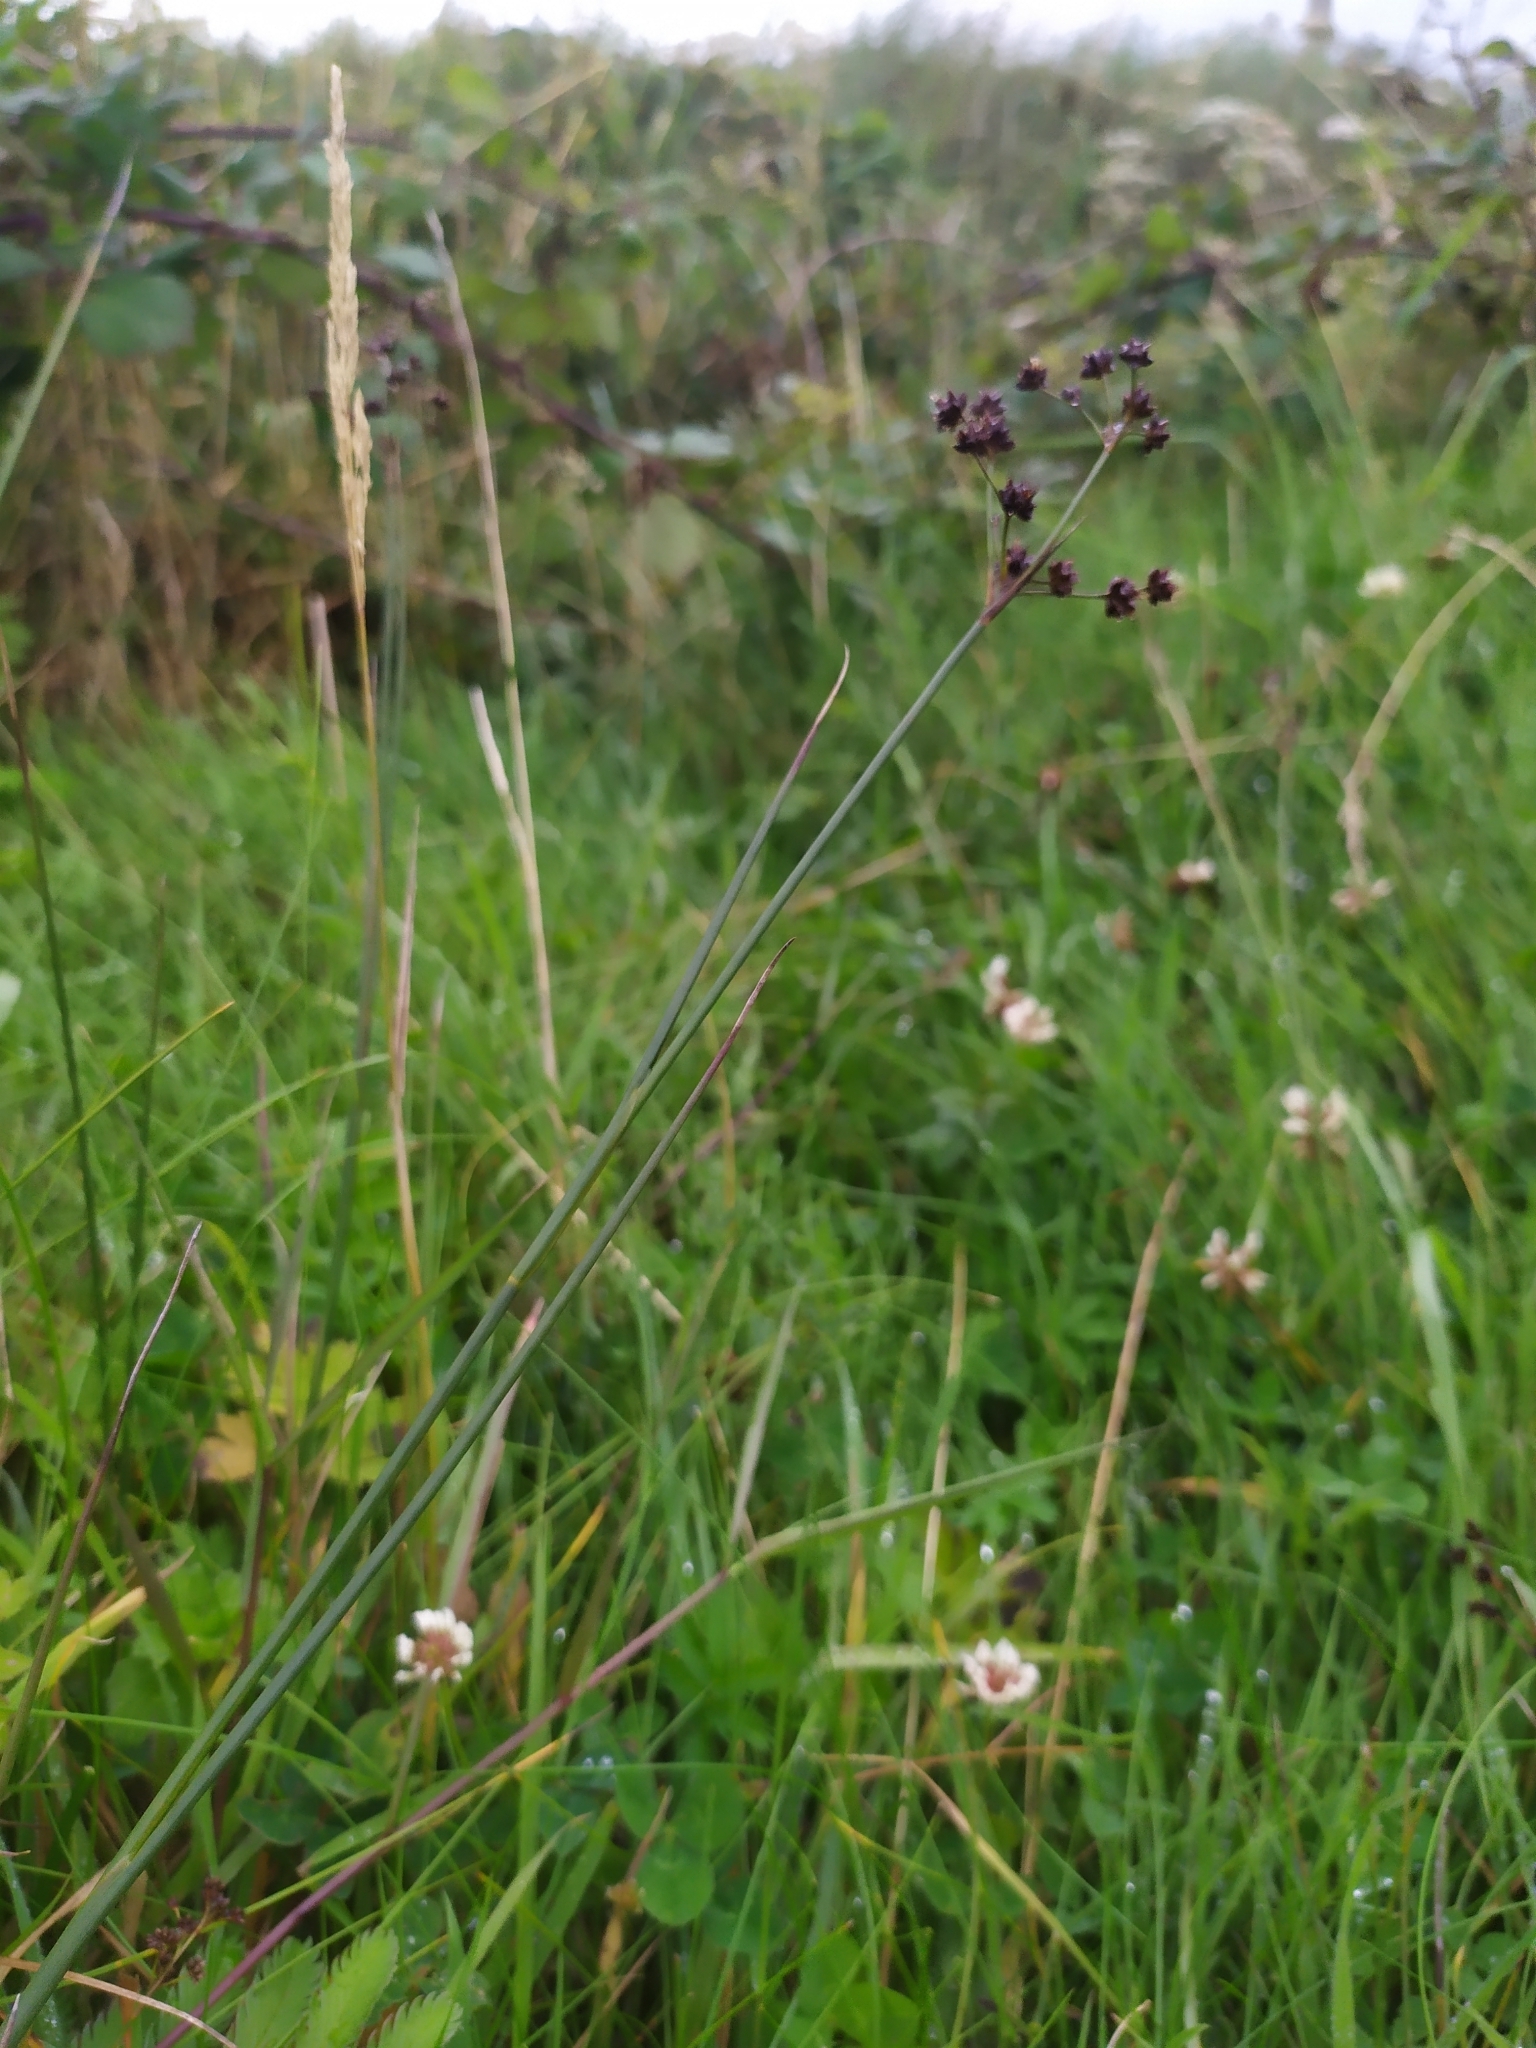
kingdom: Plantae
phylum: Tracheophyta
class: Liliopsida
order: Poales
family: Juncaceae
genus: Juncus
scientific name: Juncus articulatus
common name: Jointed rush
